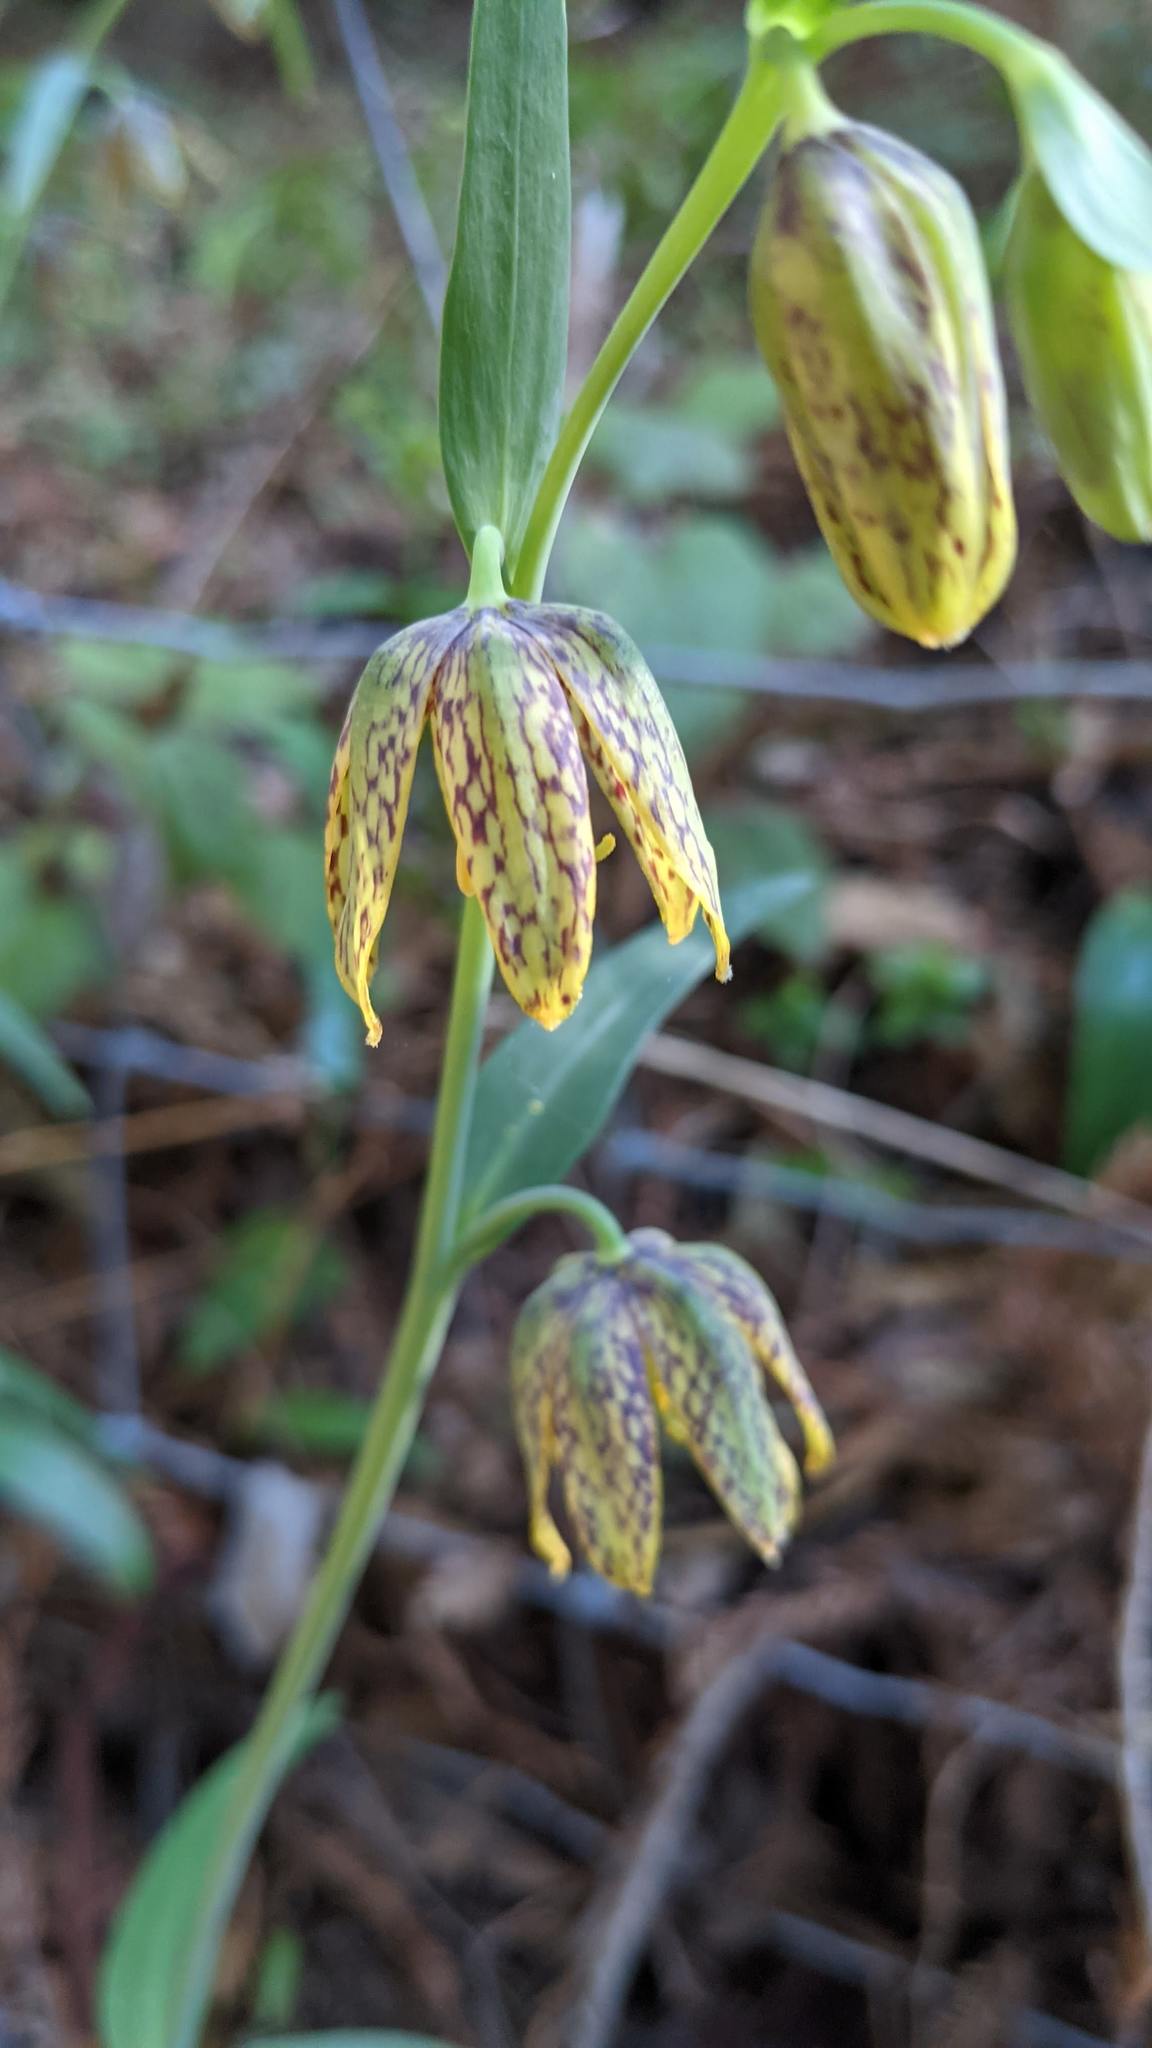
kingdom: Plantae
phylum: Tracheophyta
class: Liliopsida
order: Liliales
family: Liliaceae
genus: Fritillaria
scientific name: Fritillaria affinis
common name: Ojai fritillary
